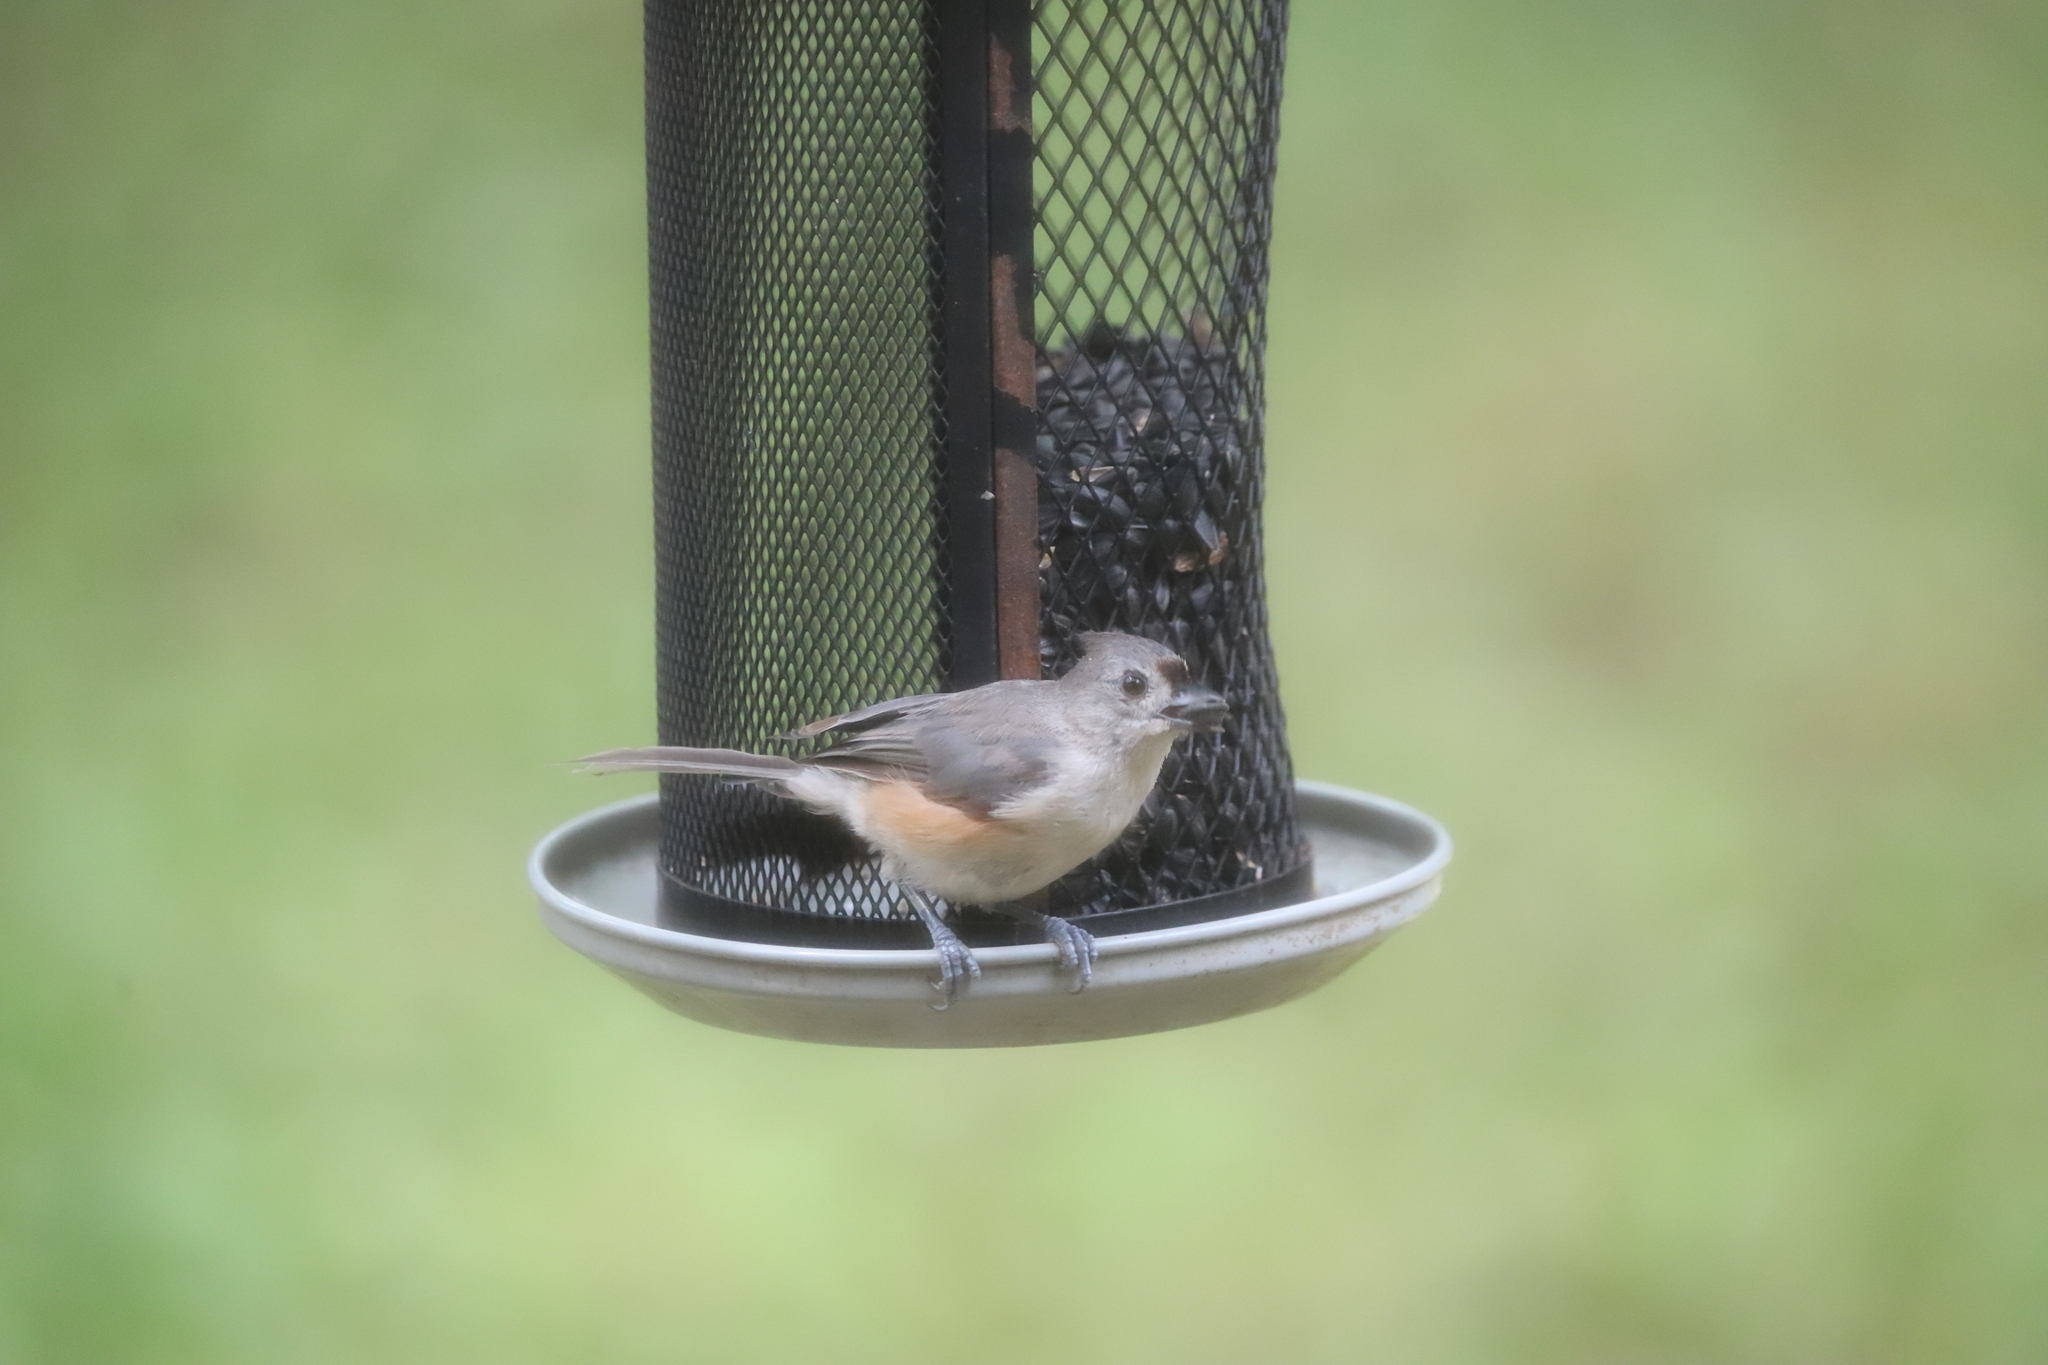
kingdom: Animalia
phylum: Chordata
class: Aves
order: Passeriformes
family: Paridae
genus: Baeolophus
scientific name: Baeolophus bicolor
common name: Tufted titmouse
